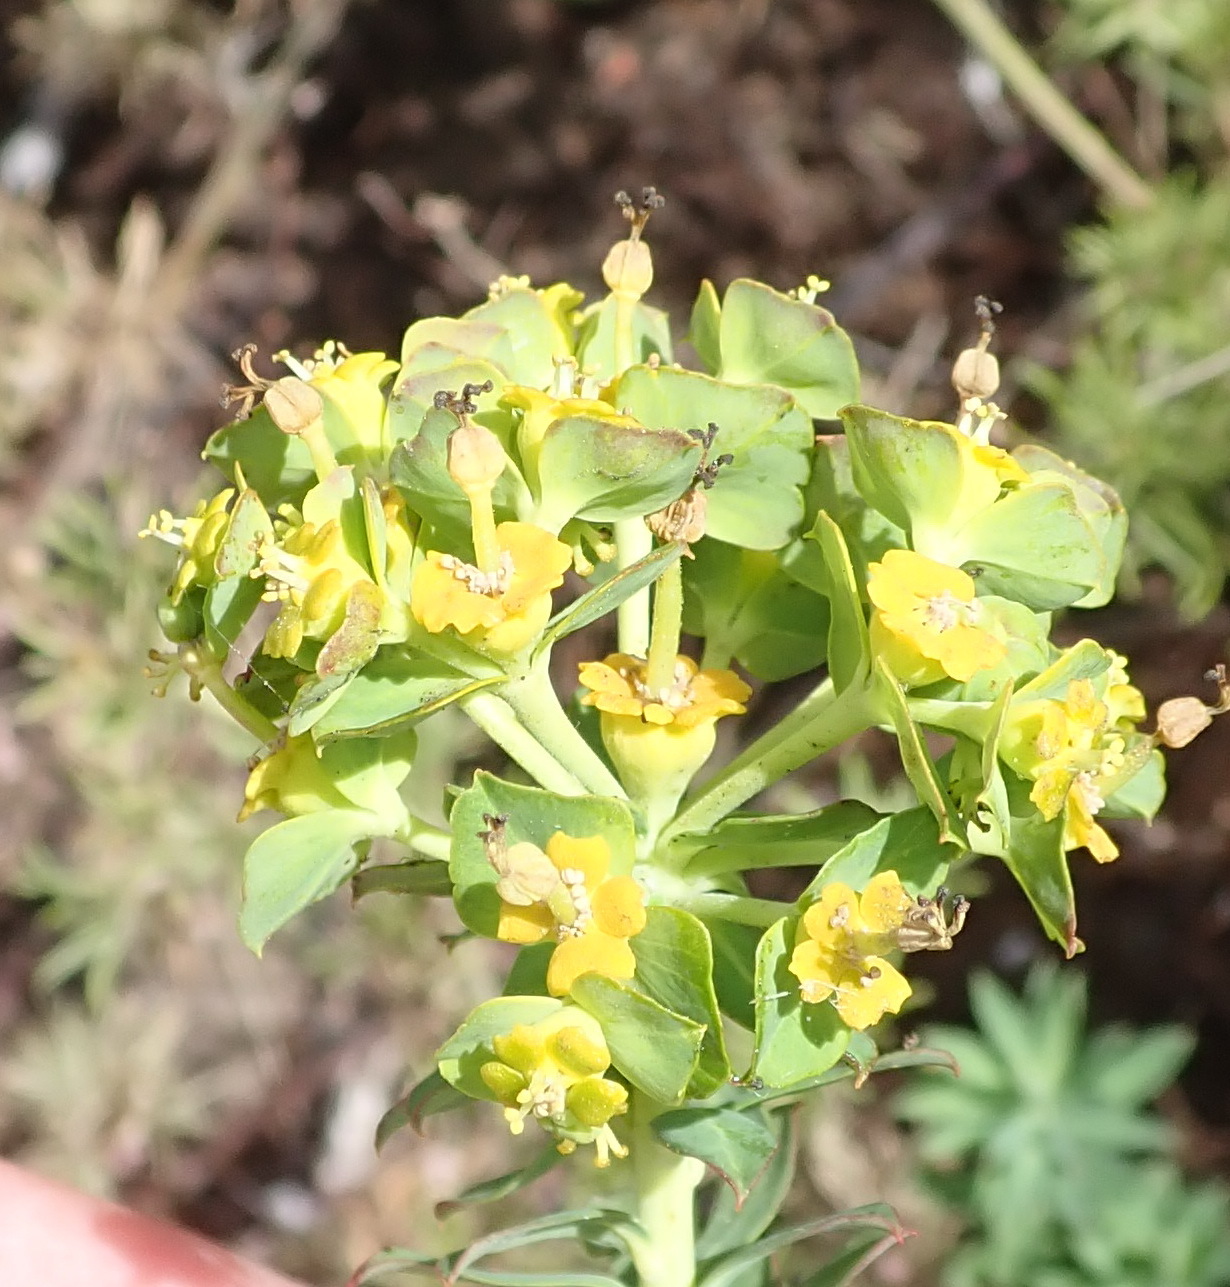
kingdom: Plantae
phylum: Tracheophyta
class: Magnoliopsida
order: Malpighiales
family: Euphorbiaceae
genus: Euphorbia
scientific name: Euphorbia foliosa
